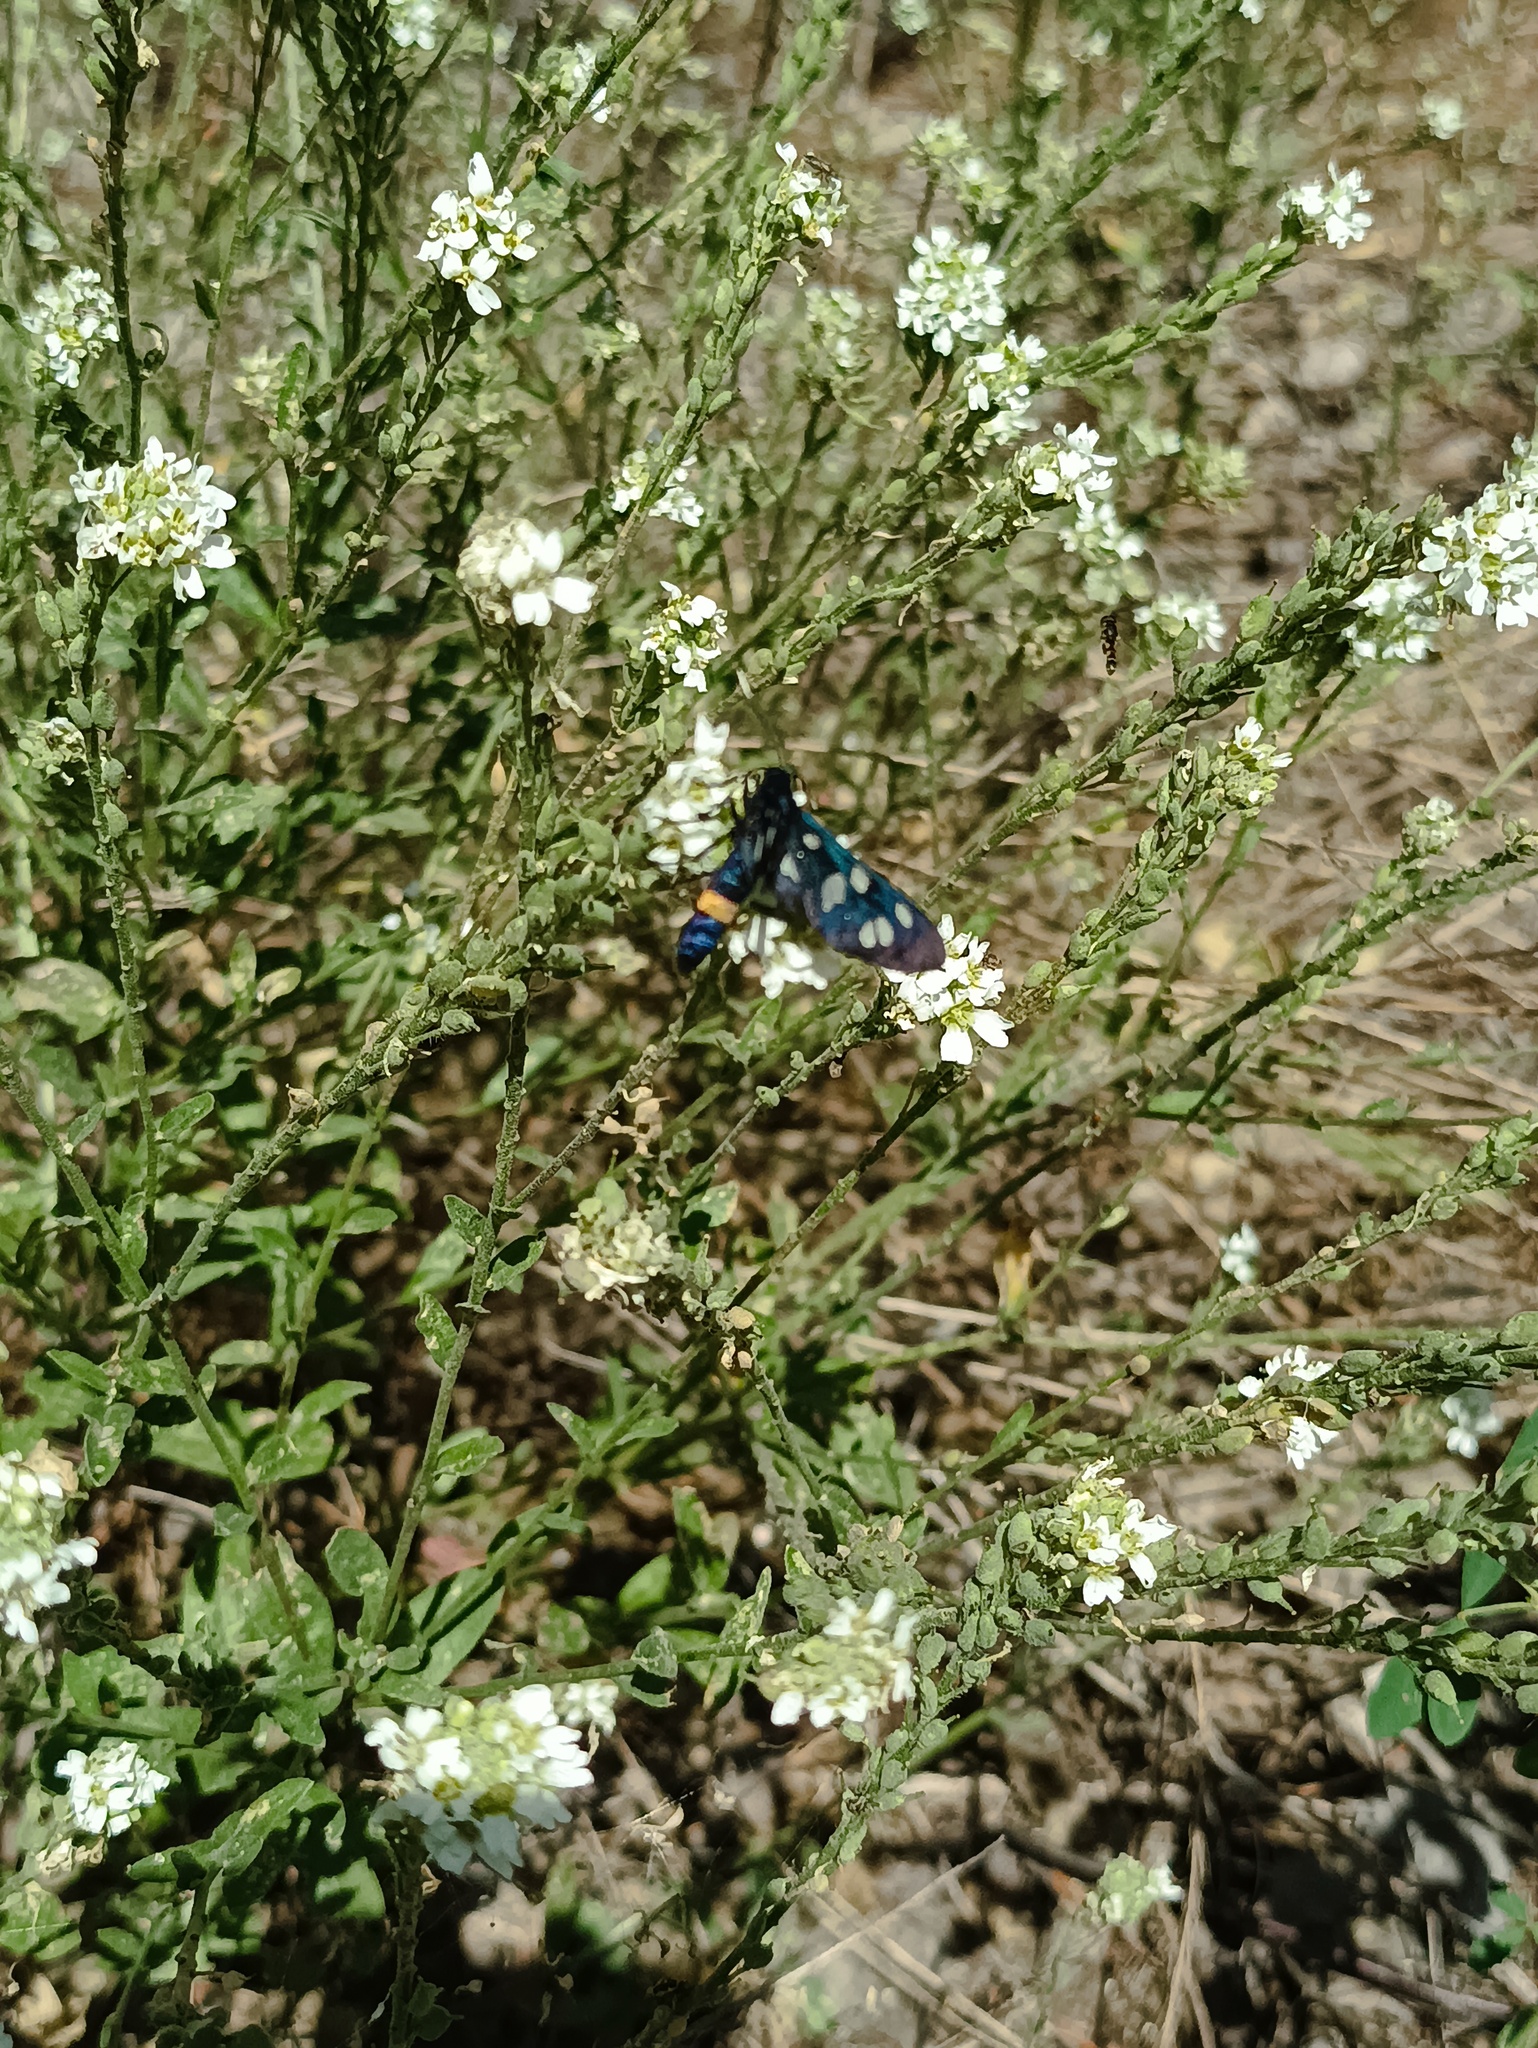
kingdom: Animalia
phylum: Arthropoda
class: Insecta
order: Lepidoptera
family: Erebidae
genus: Amata
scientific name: Amata nigricornis
